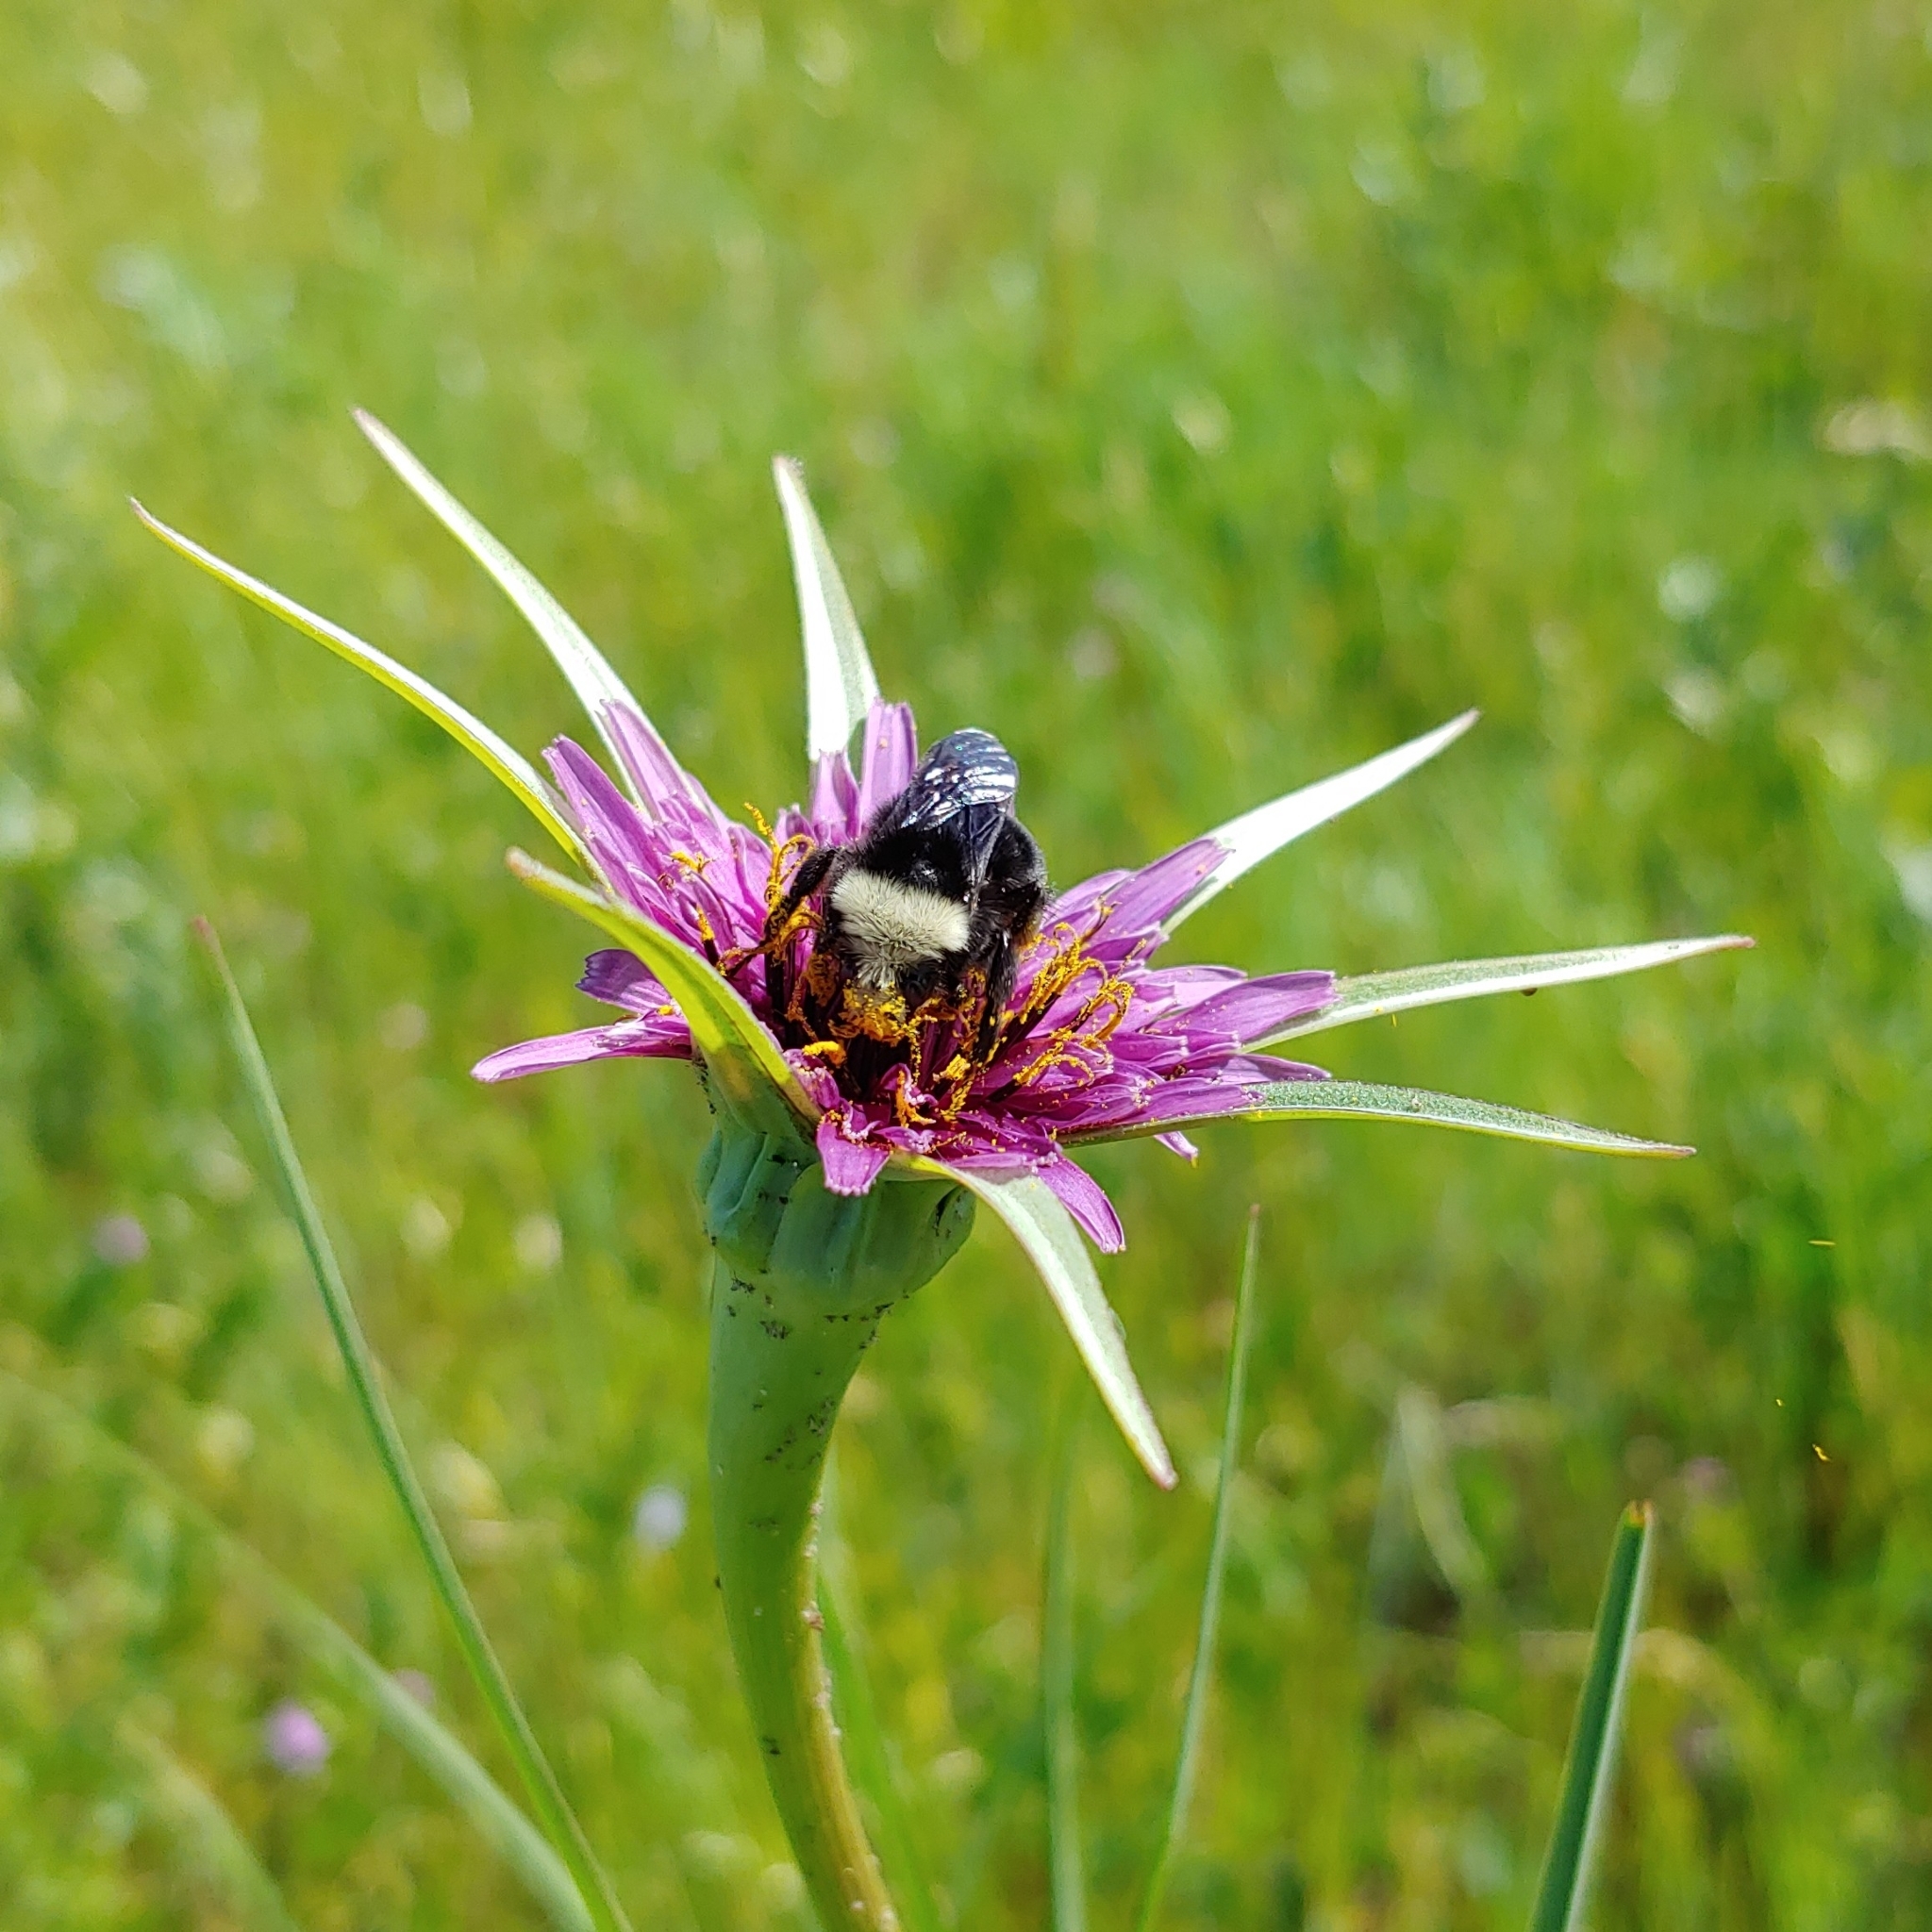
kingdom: Animalia
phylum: Arthropoda
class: Insecta
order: Hymenoptera
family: Apidae
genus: Pyrobombus
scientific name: Pyrobombus
